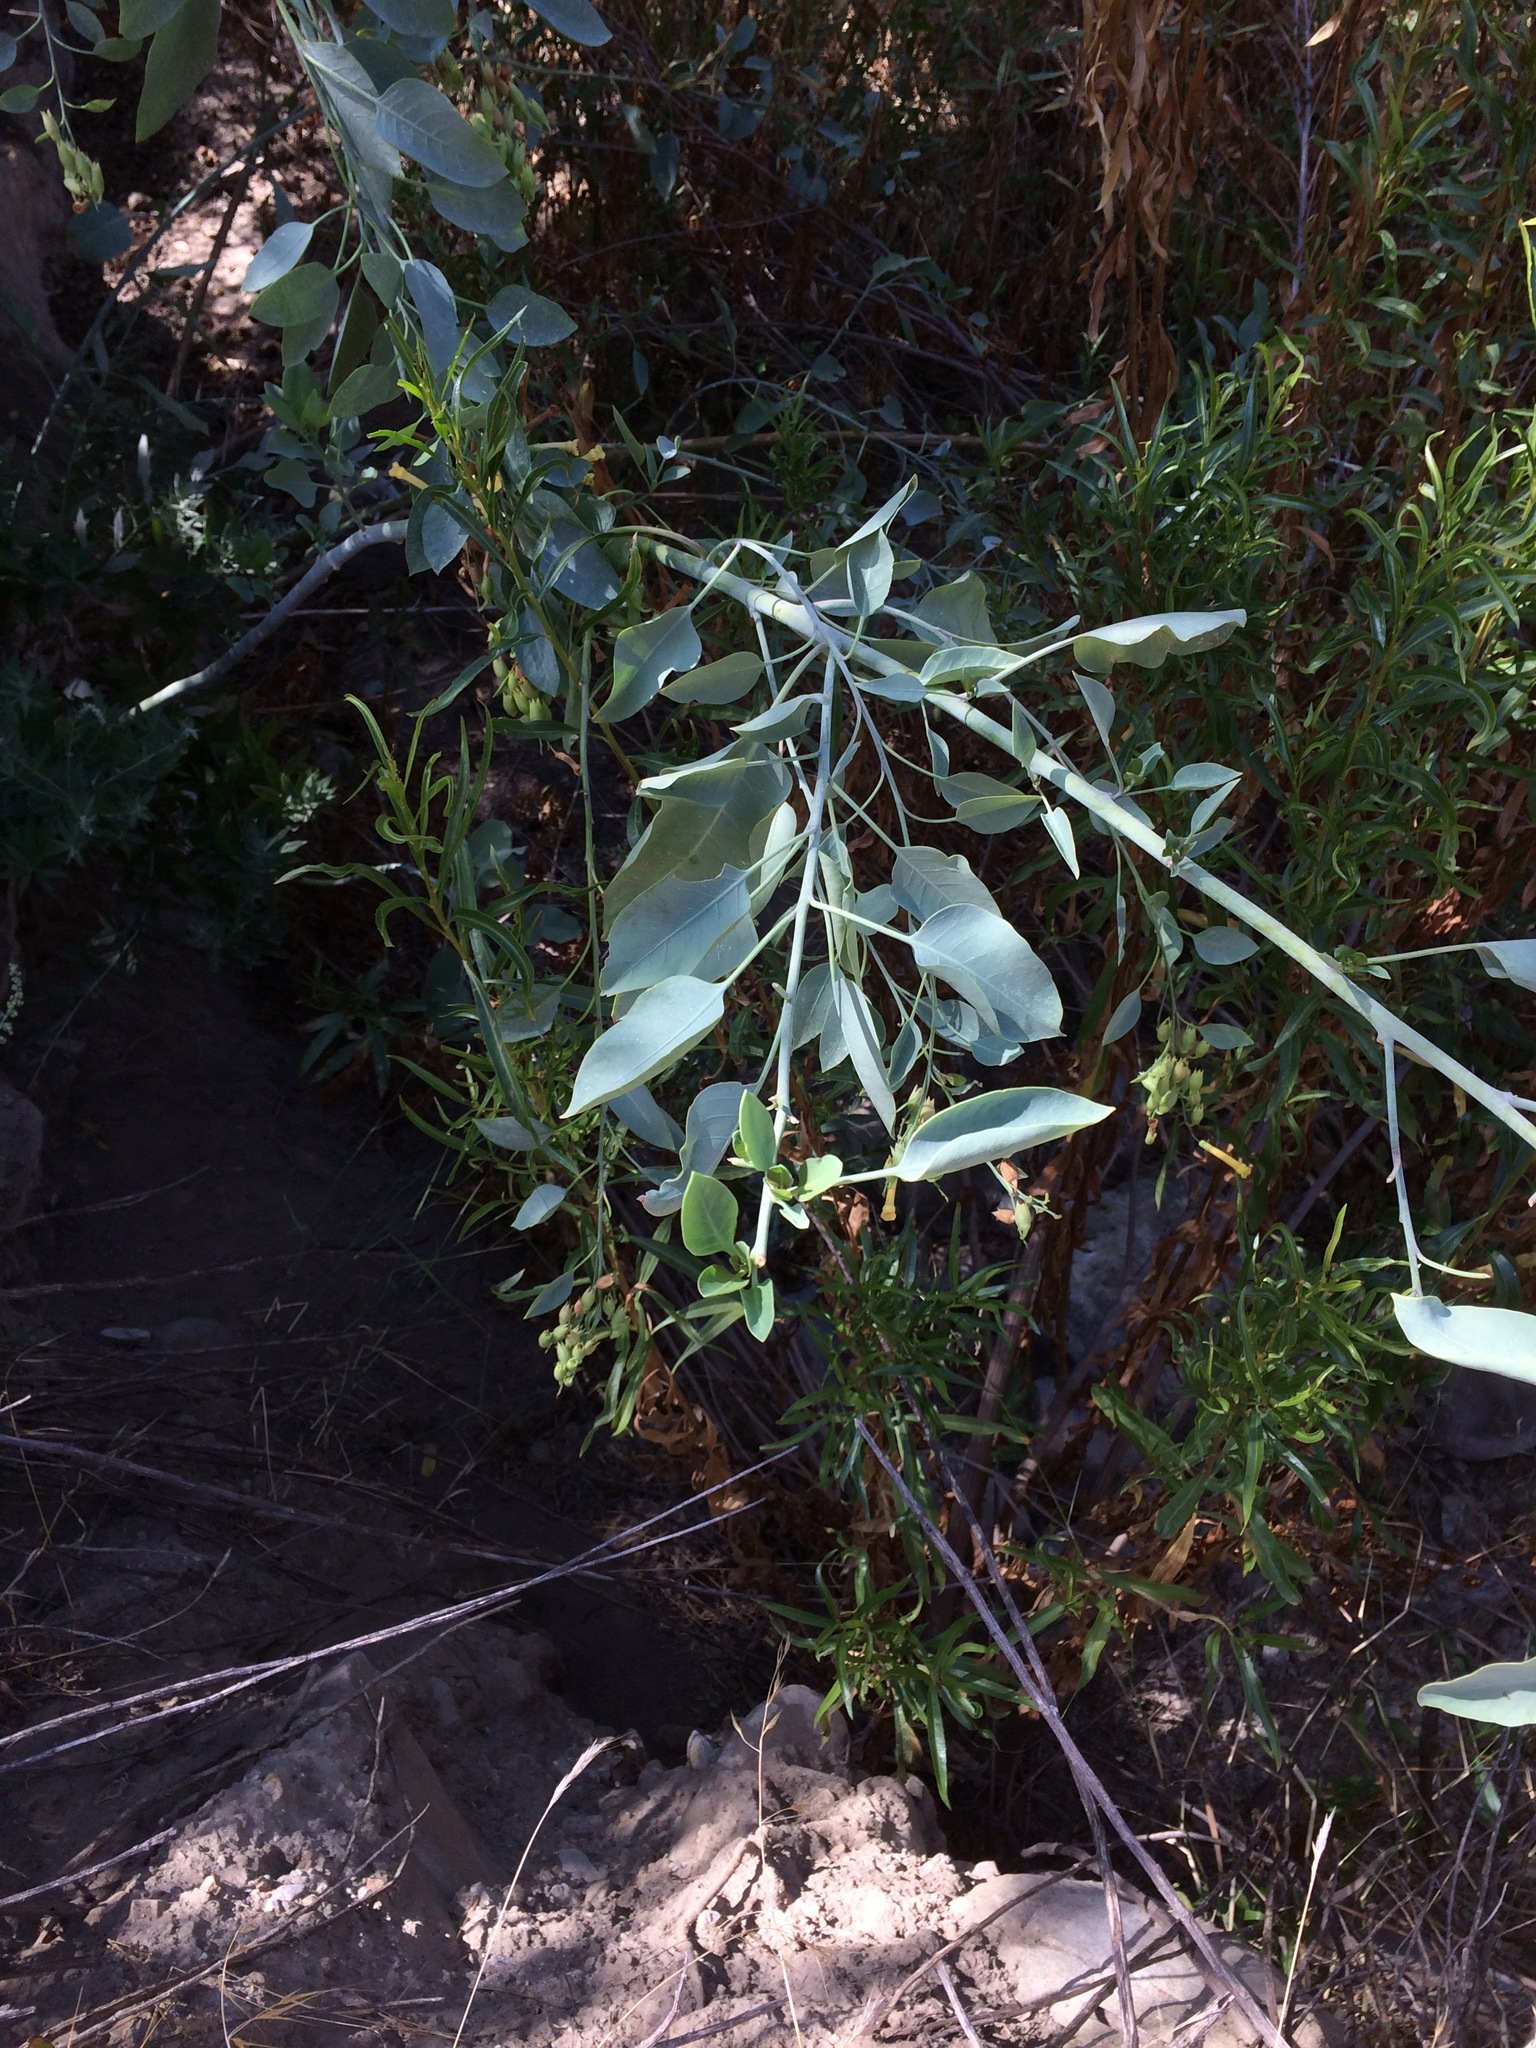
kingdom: Plantae
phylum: Tracheophyta
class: Magnoliopsida
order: Solanales
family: Solanaceae
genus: Nicotiana
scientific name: Nicotiana glauca
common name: Tree tobacco
